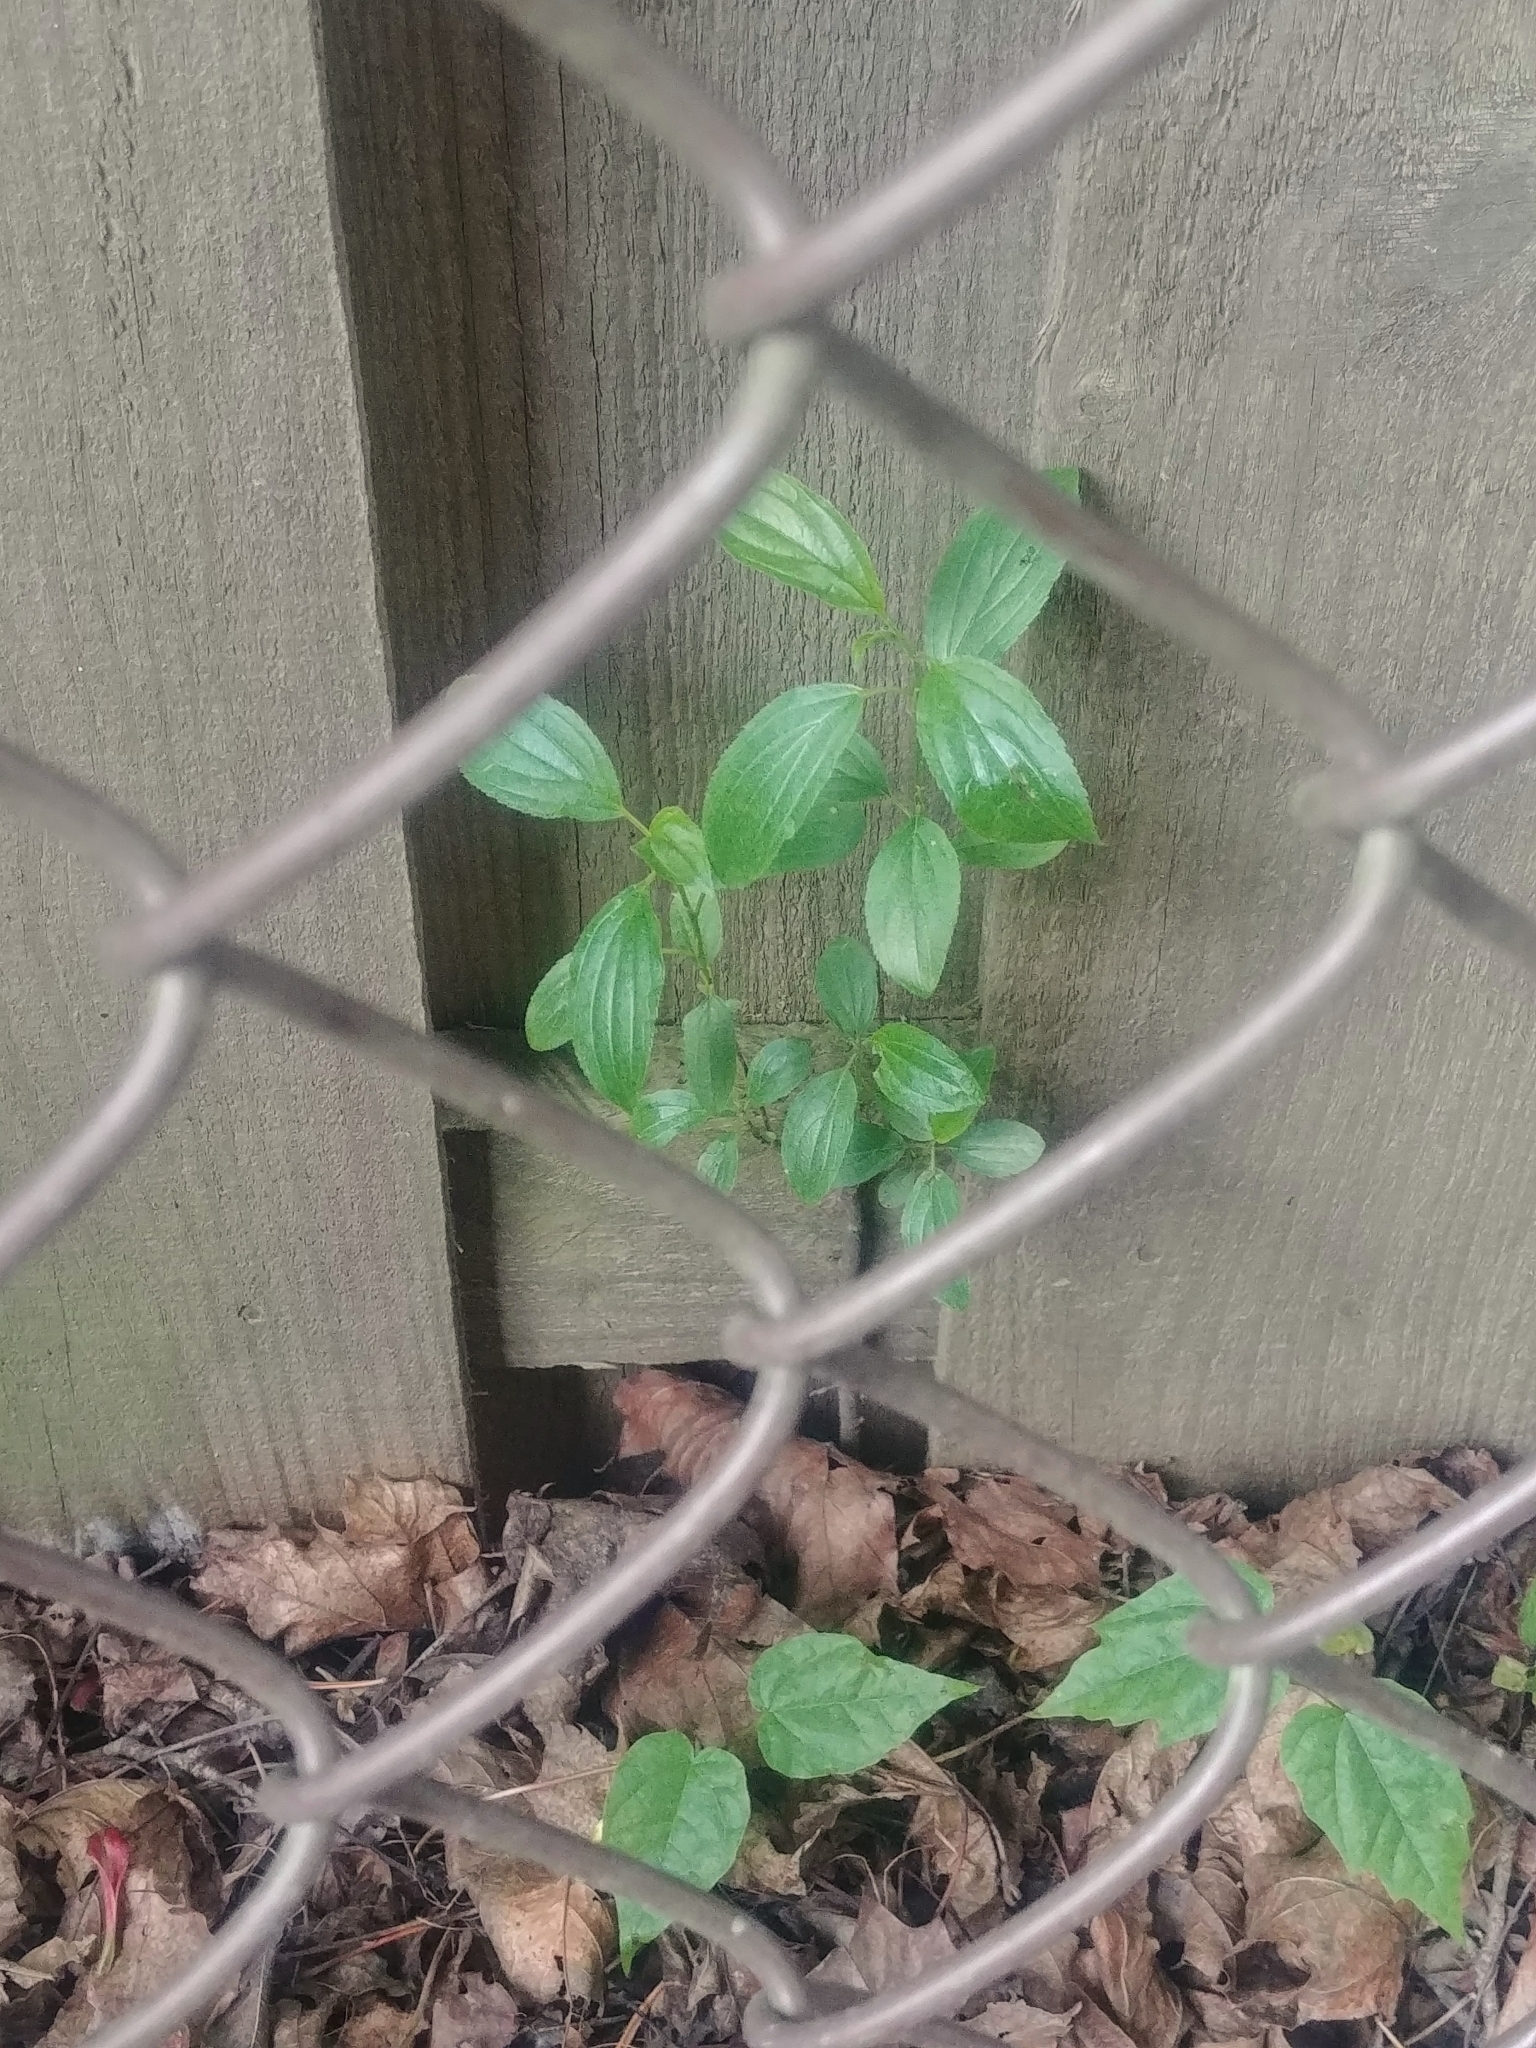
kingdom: Plantae
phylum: Tracheophyta
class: Magnoliopsida
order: Rosales
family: Rhamnaceae
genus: Rhamnus
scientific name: Rhamnus cathartica
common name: Common buckthorn
